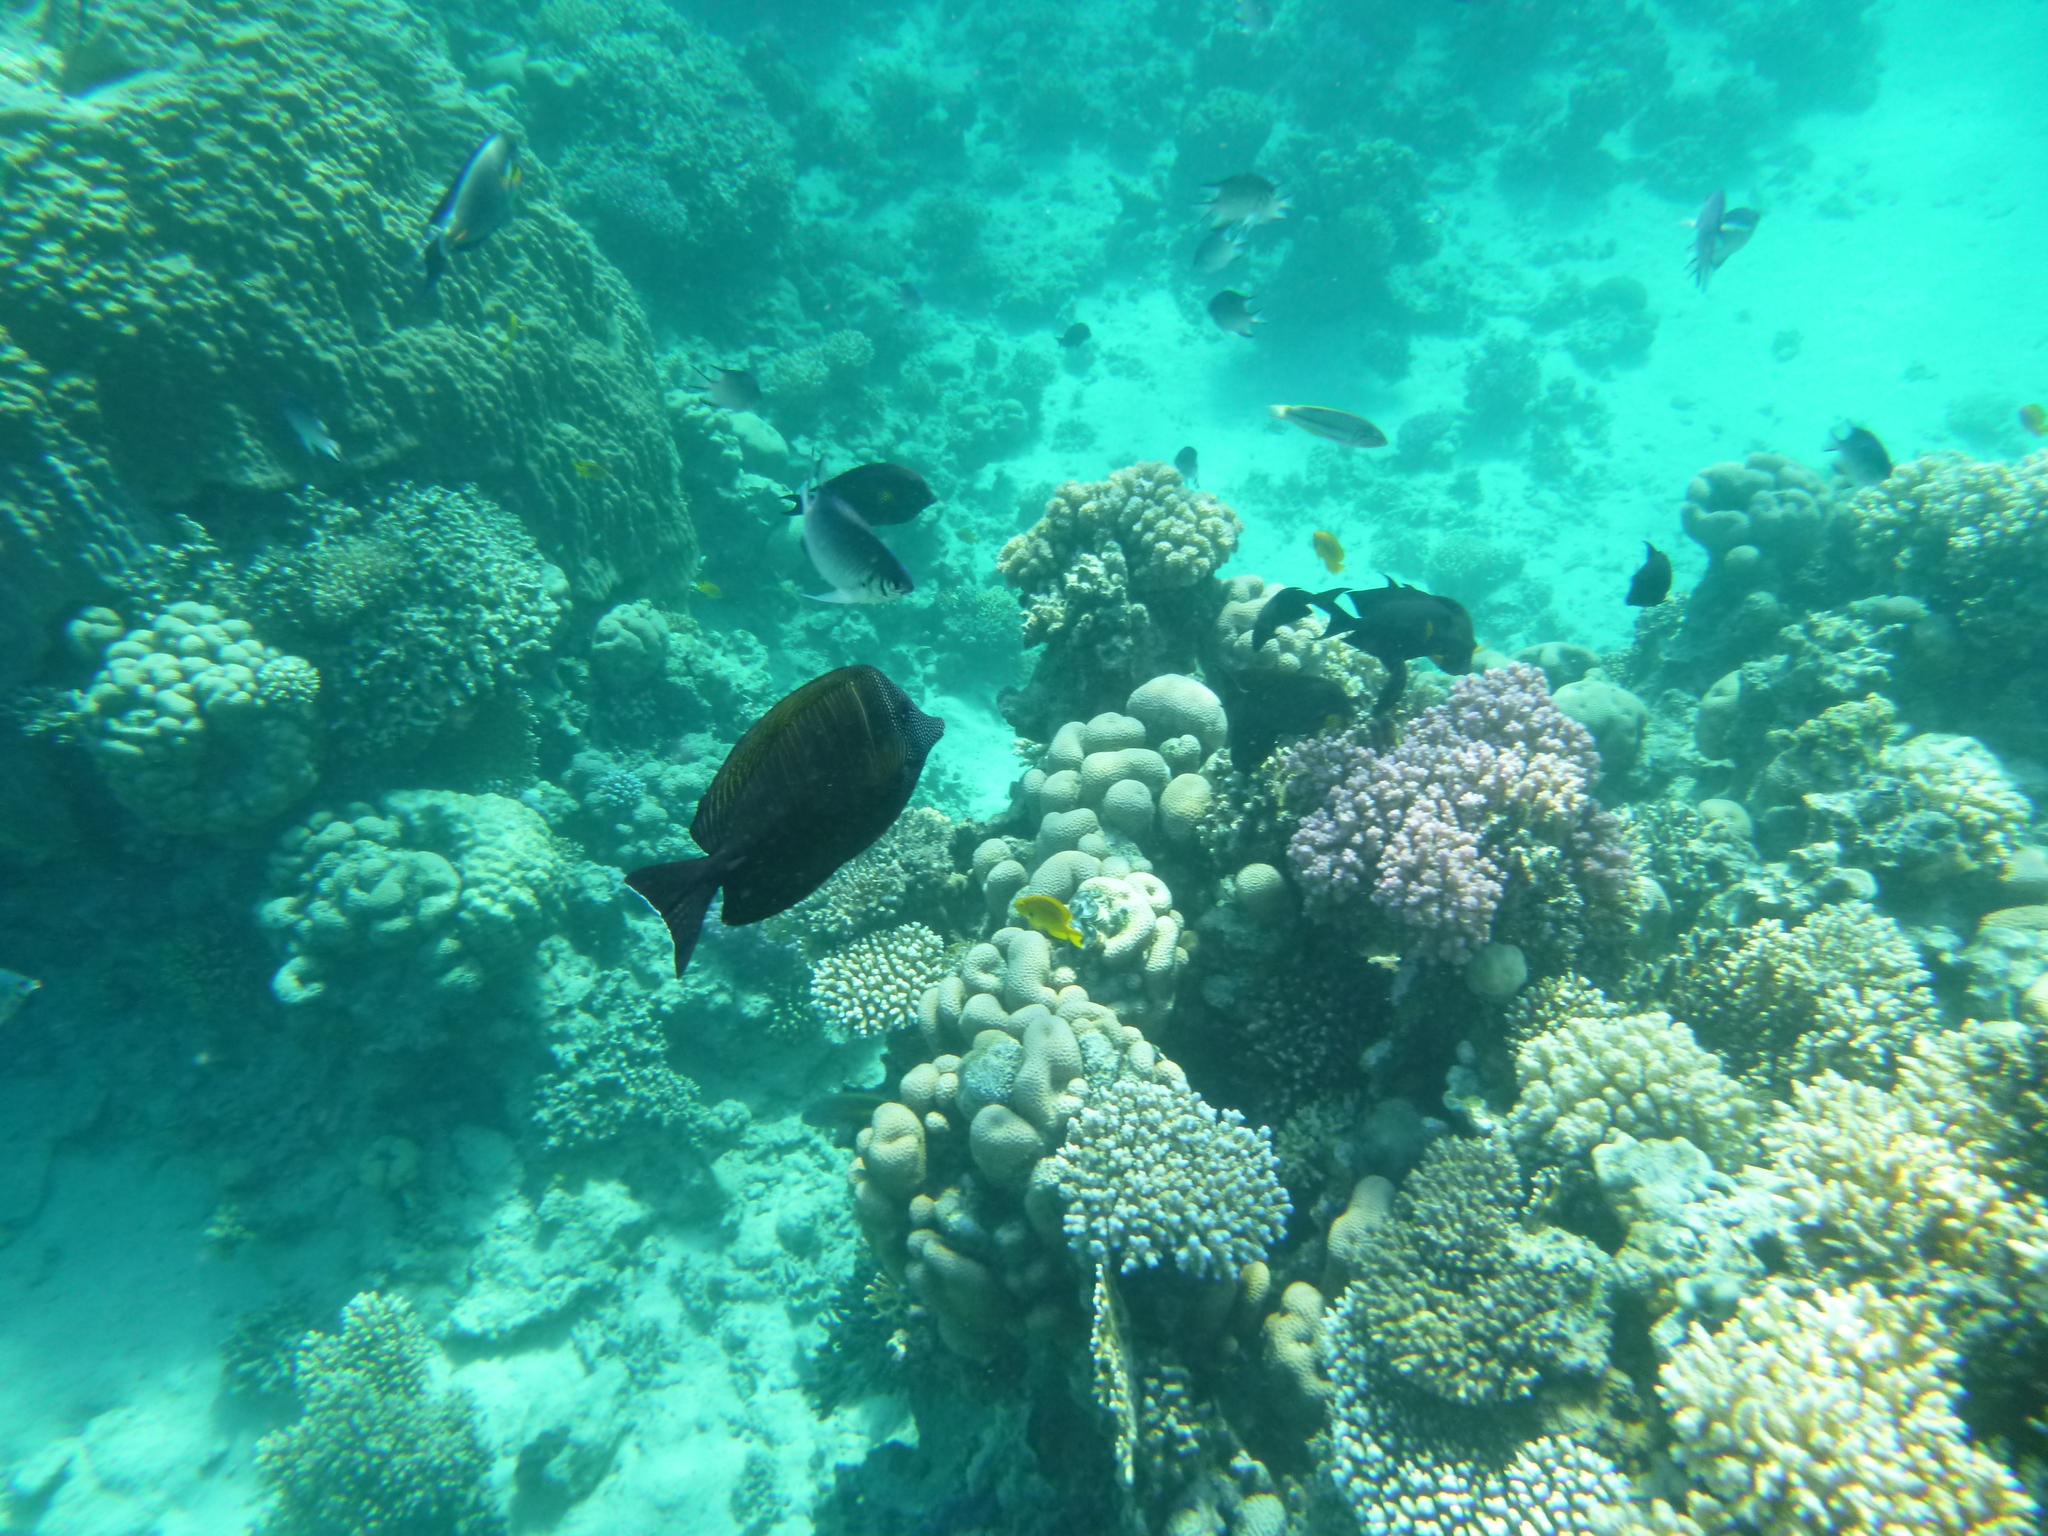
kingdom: Animalia
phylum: Chordata
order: Perciformes
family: Acanthuridae
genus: Zebrasoma
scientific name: Zebrasoma desjardinii
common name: Desjardin's sailfin tang
